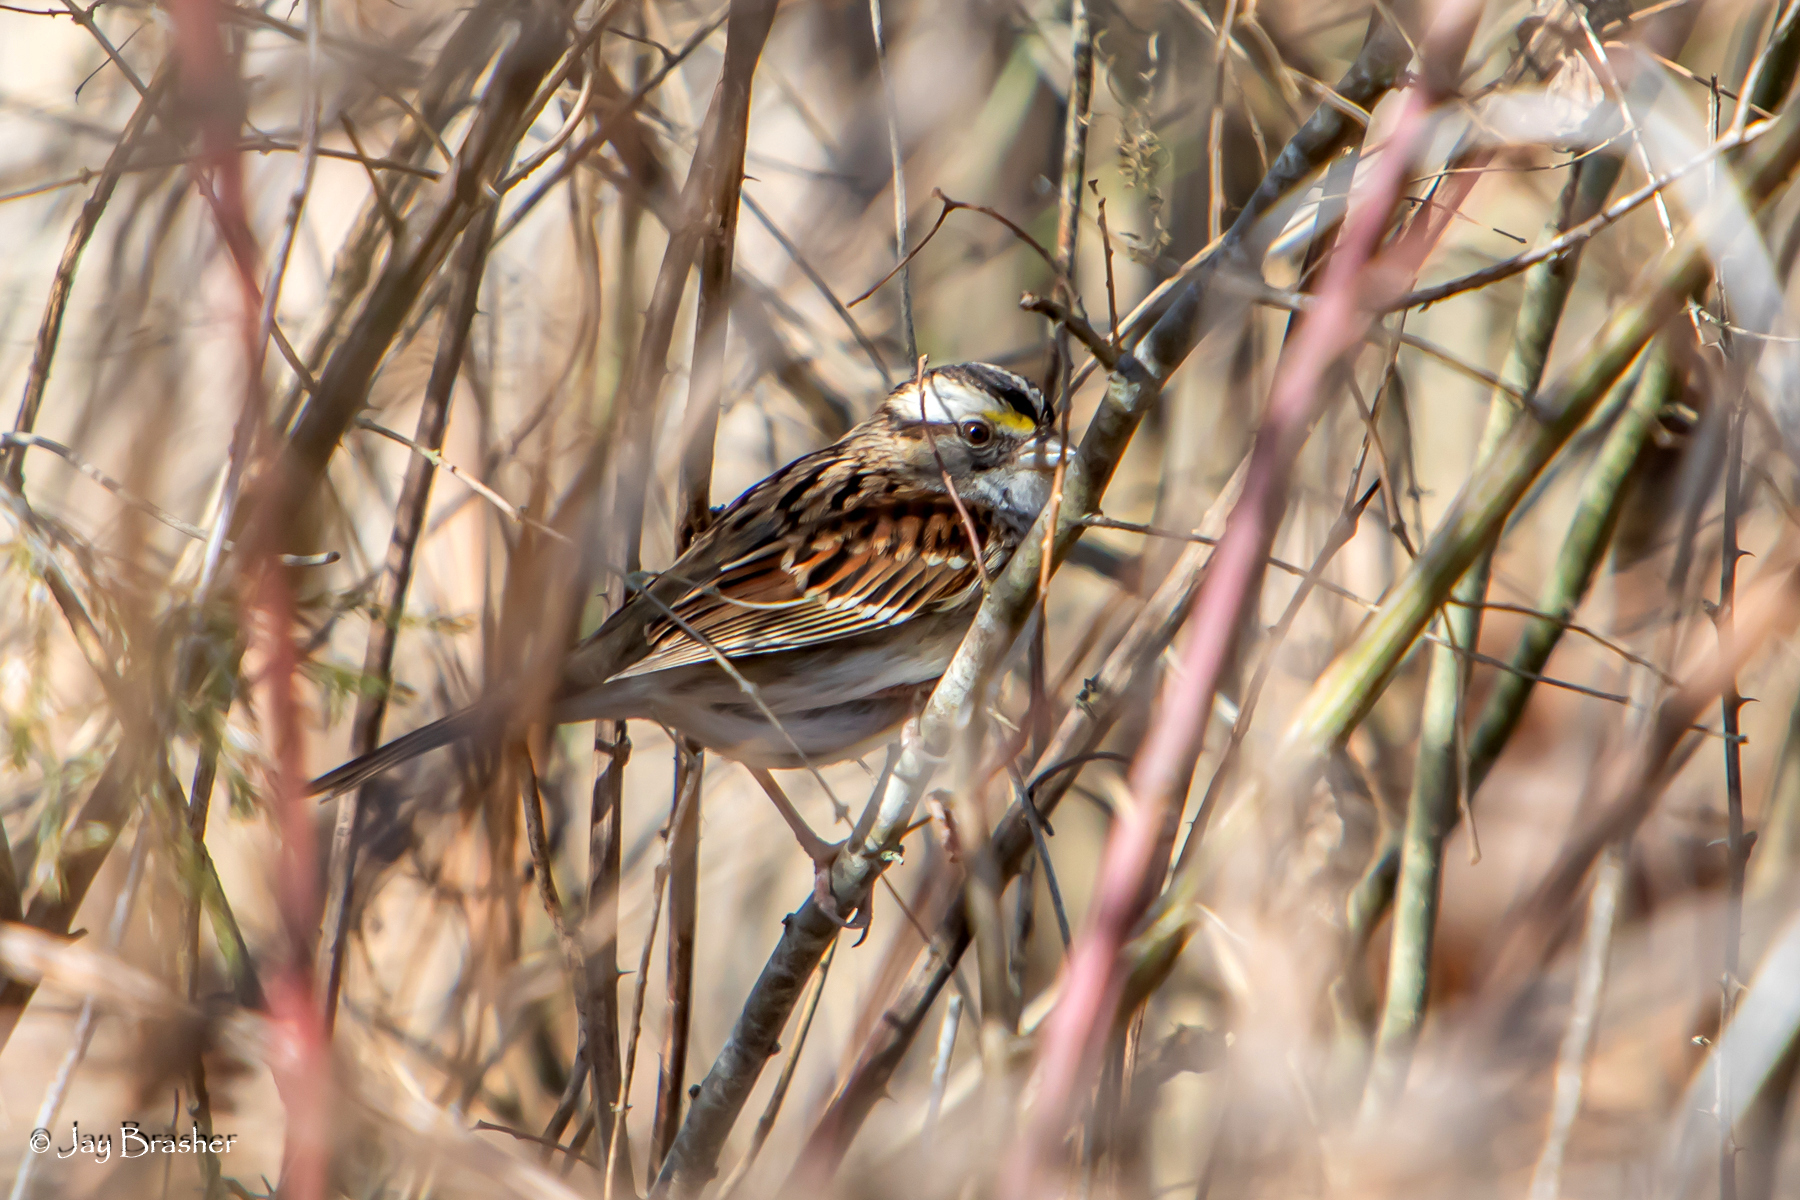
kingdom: Animalia
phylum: Chordata
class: Aves
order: Passeriformes
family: Passerellidae
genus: Zonotrichia
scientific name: Zonotrichia albicollis
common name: White-throated sparrow
